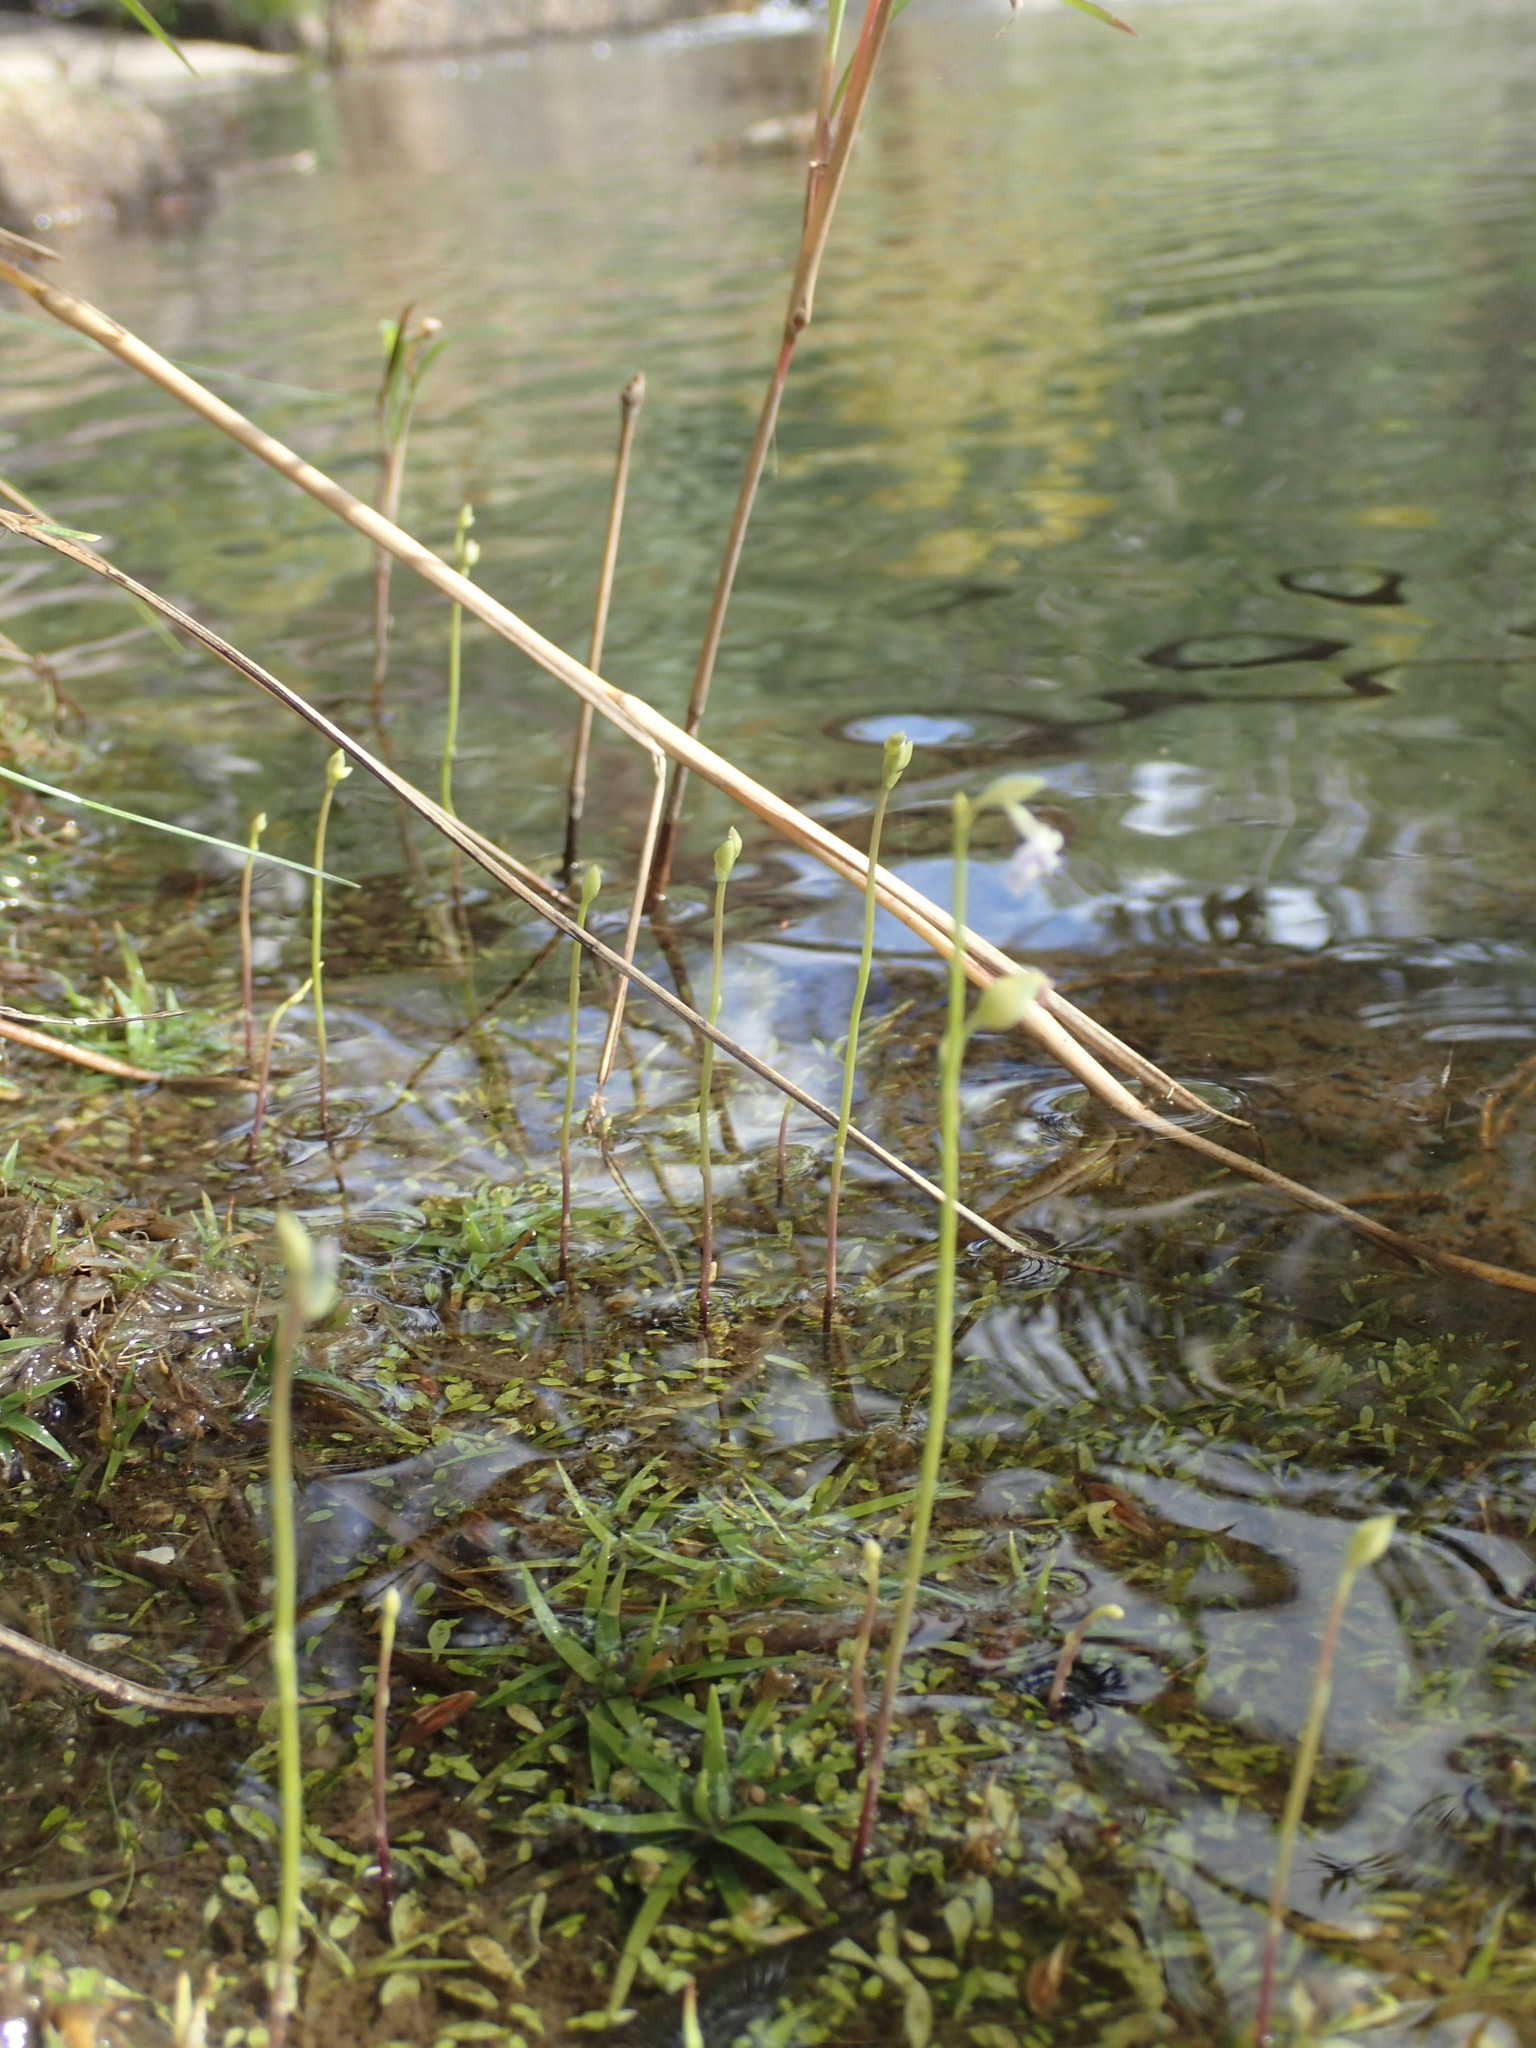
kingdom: Plantae
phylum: Tracheophyta
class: Magnoliopsida
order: Lamiales
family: Lentibulariaceae
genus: Utricularia
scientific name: Utricularia uliginosa
